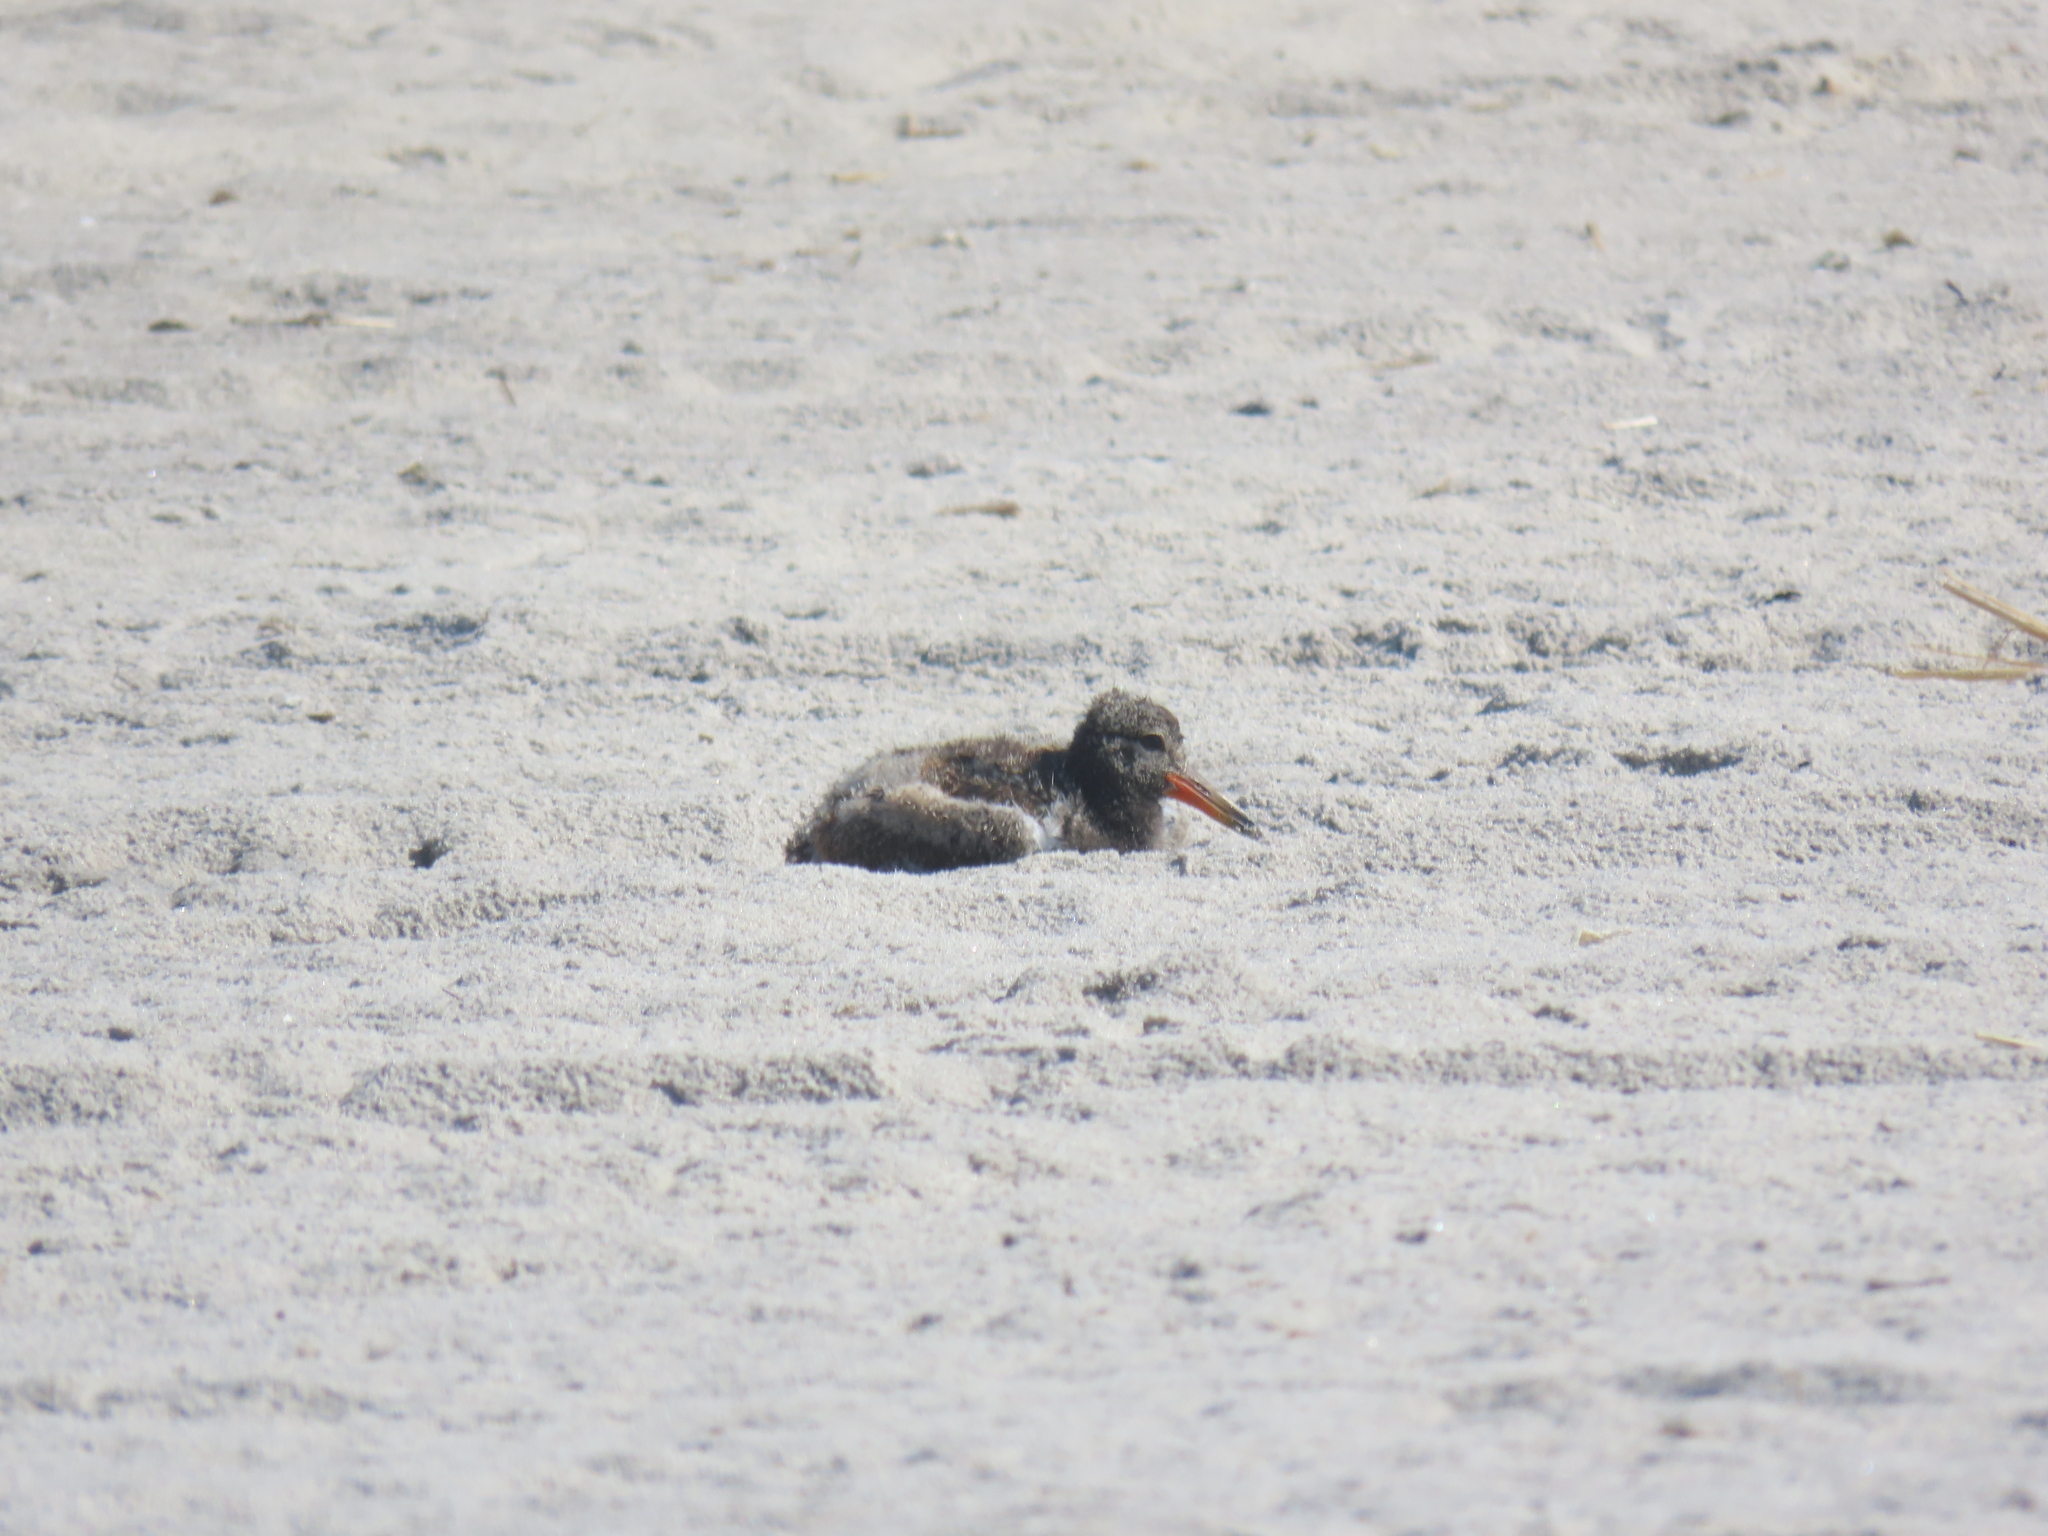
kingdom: Animalia
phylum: Chordata
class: Aves
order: Charadriiformes
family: Haematopodidae
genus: Haematopus
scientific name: Haematopus palliatus
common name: American oystercatcher
